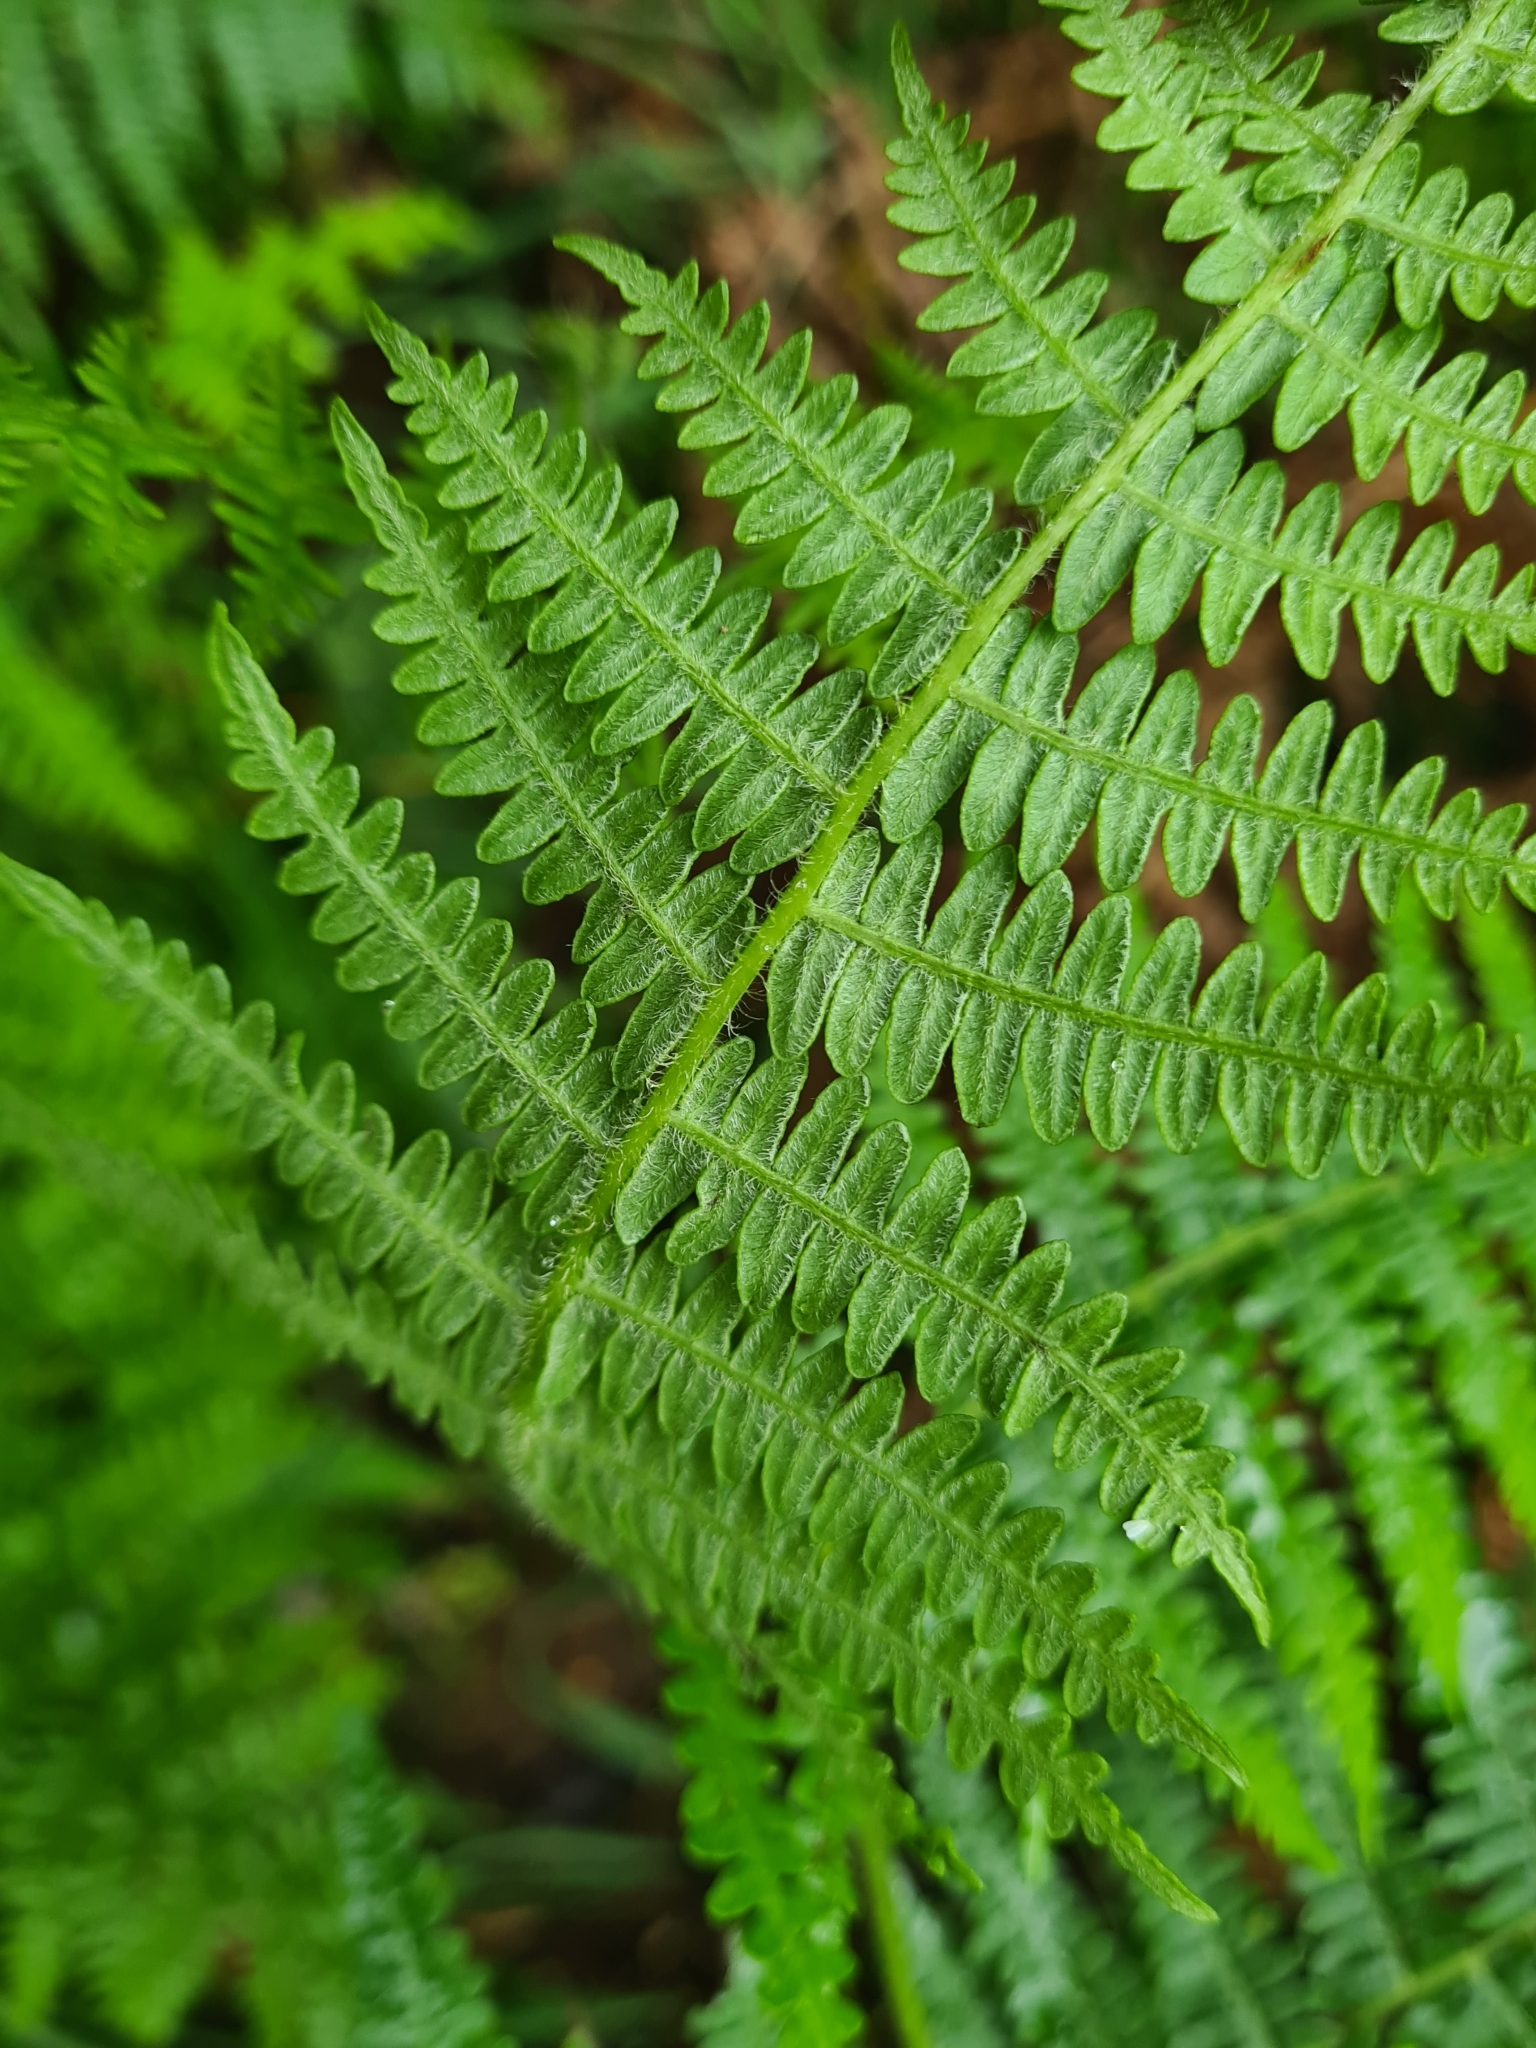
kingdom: Plantae
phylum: Tracheophyta
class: Polypodiopsida
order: Polypodiales
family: Dennstaedtiaceae
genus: Pteridium
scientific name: Pteridium aquilinum
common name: Bracken
